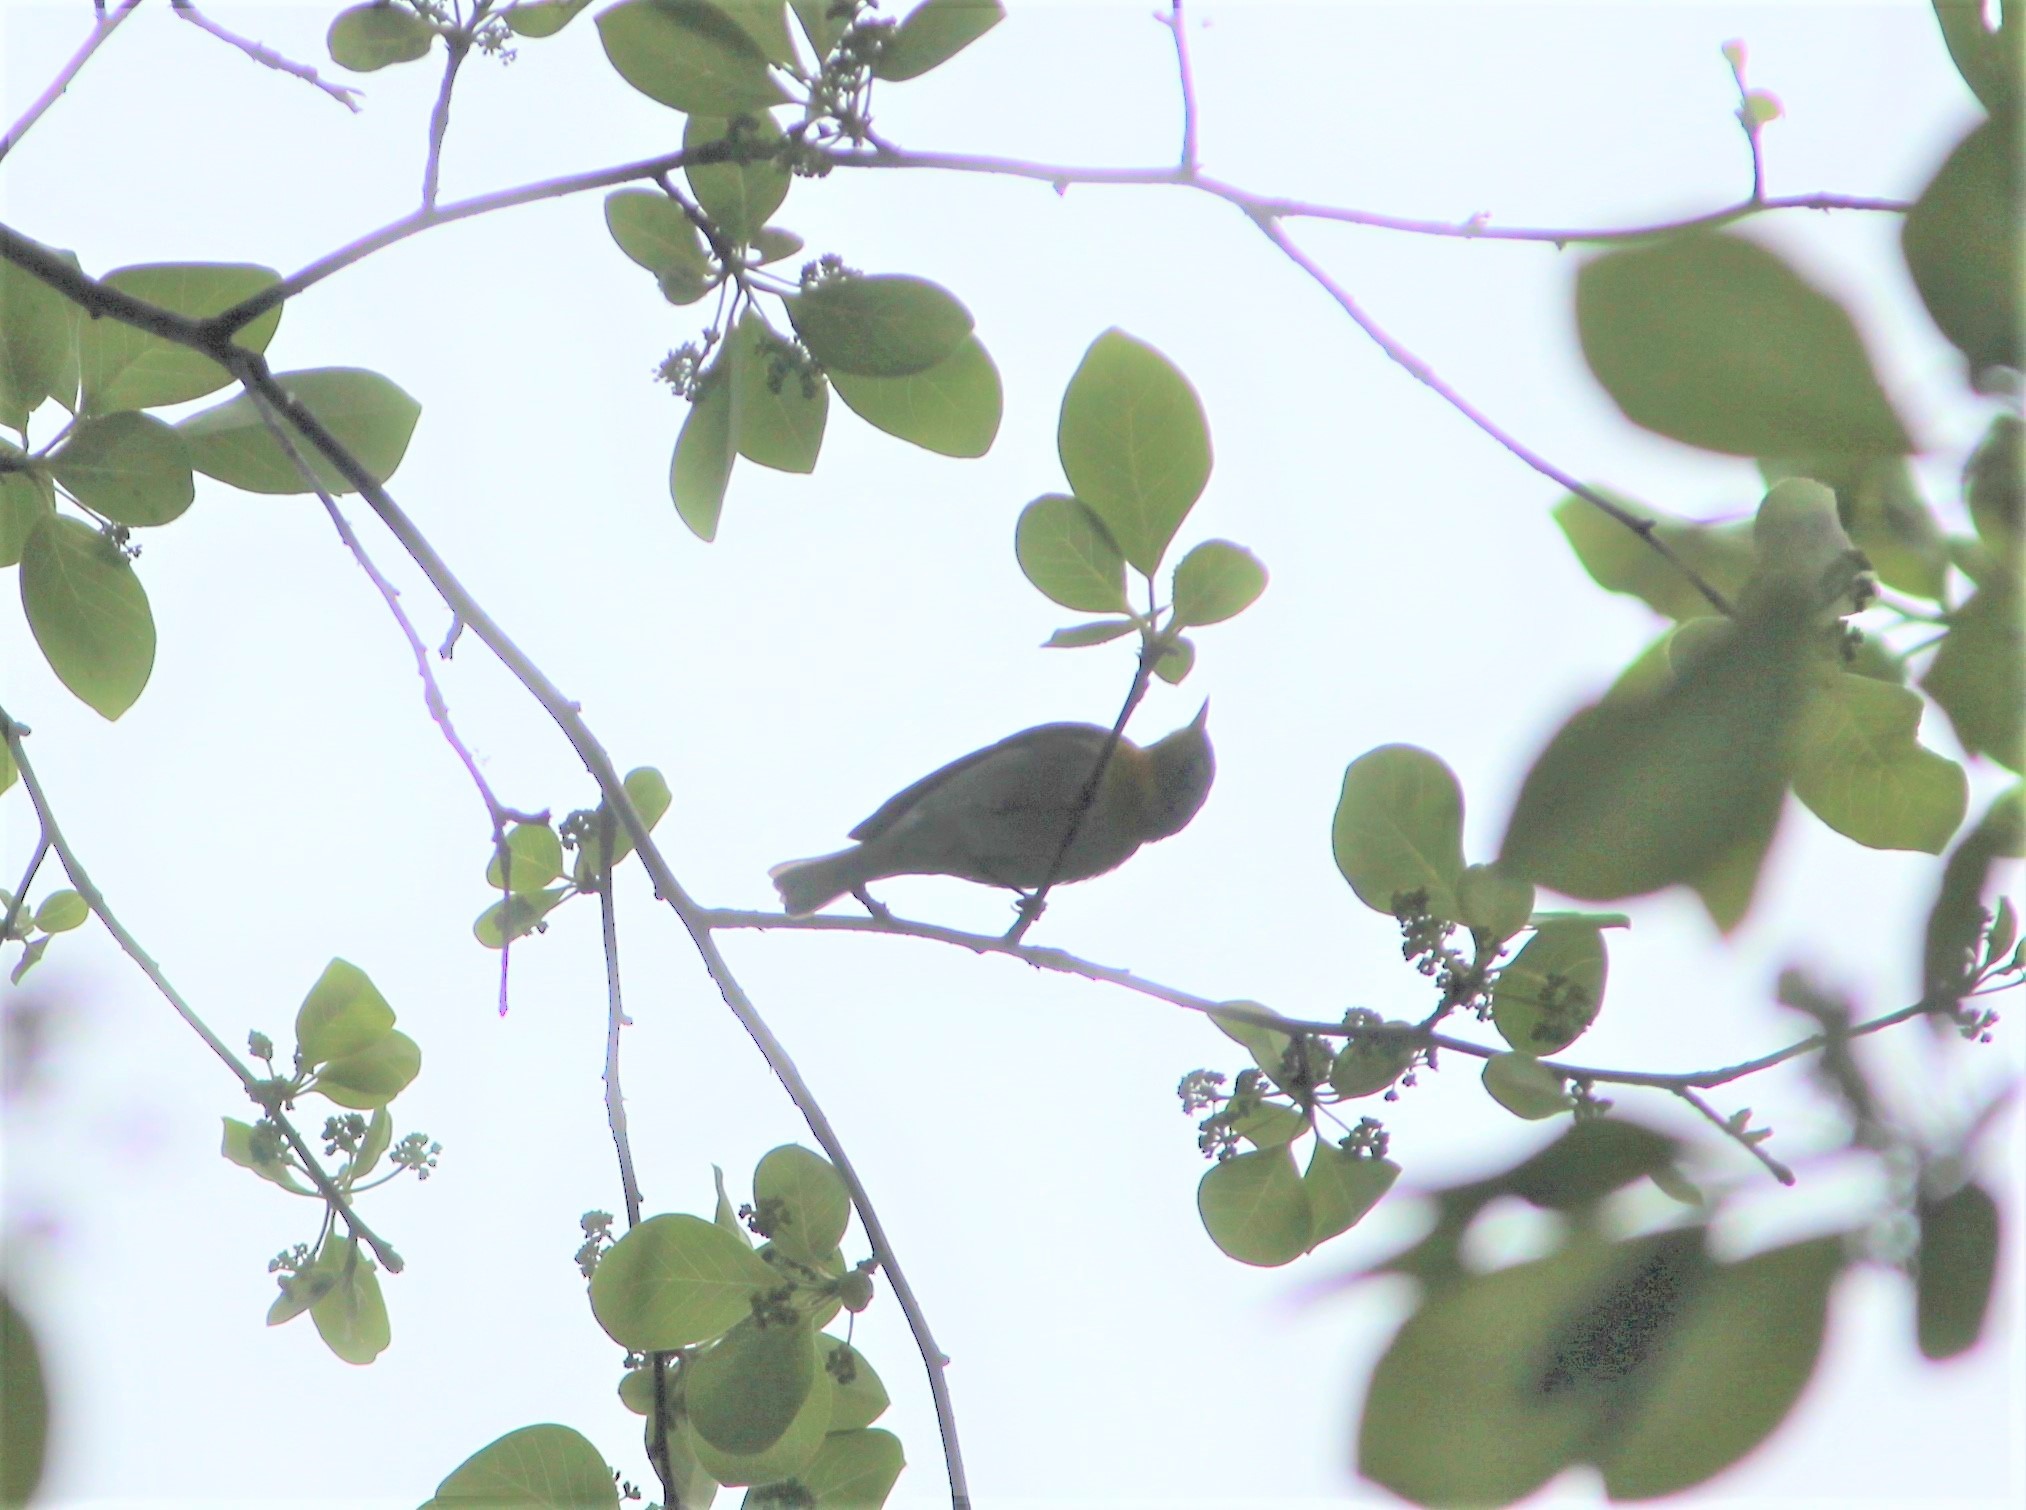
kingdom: Animalia
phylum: Chordata
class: Aves
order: Passeriformes
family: Parulidae
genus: Setophaga
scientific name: Setophaga americana
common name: Northern parula
